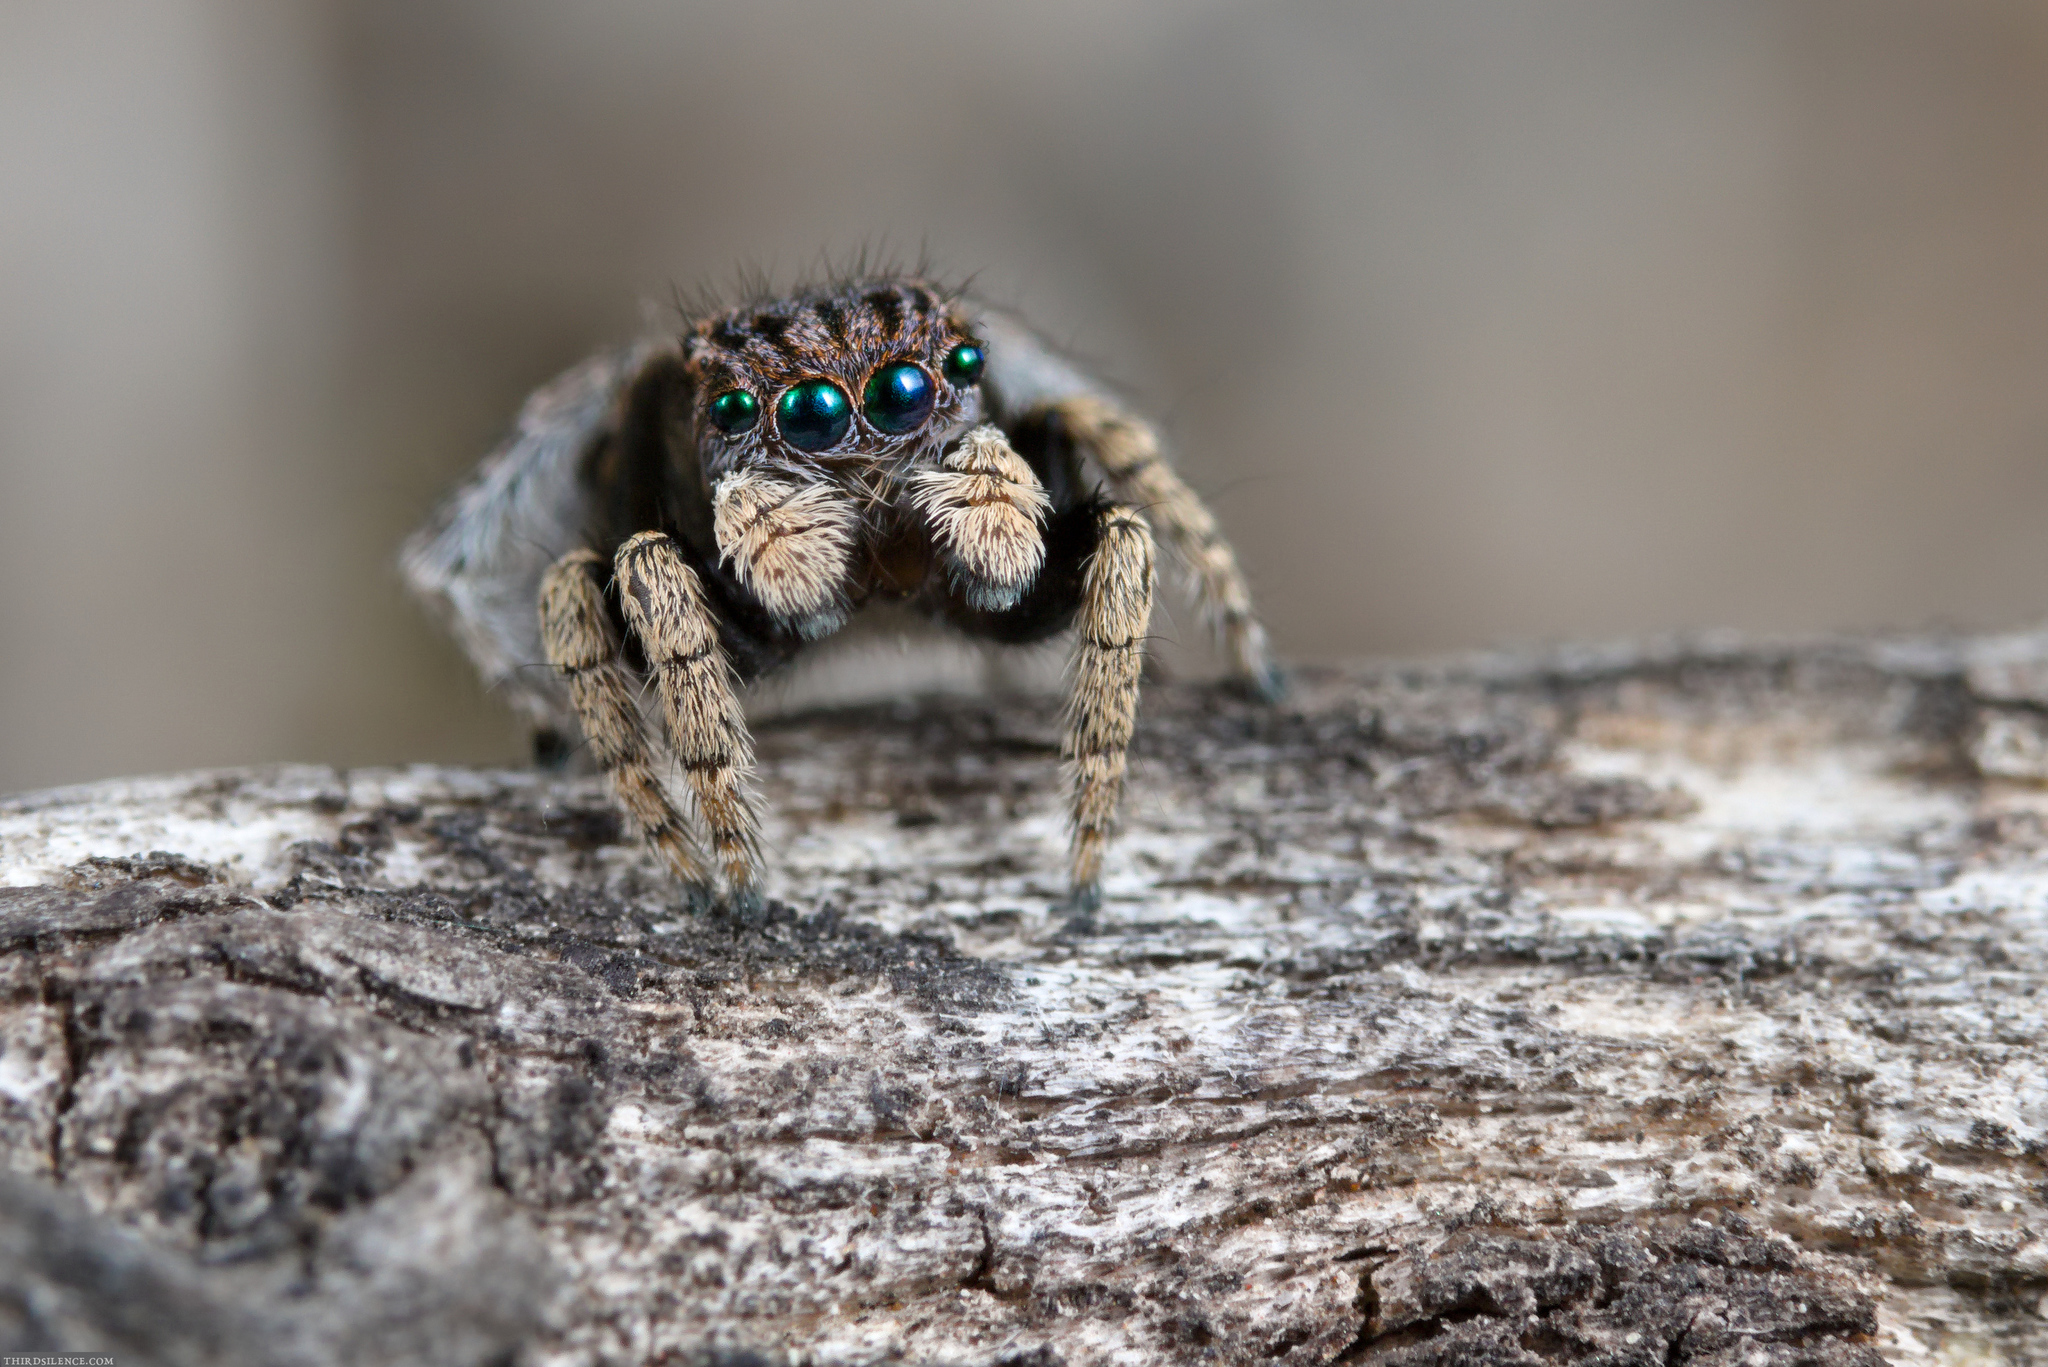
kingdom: Animalia
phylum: Arthropoda
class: Arachnida
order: Araneae
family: Salticidae
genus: Maratus
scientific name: Maratus vespertilio
